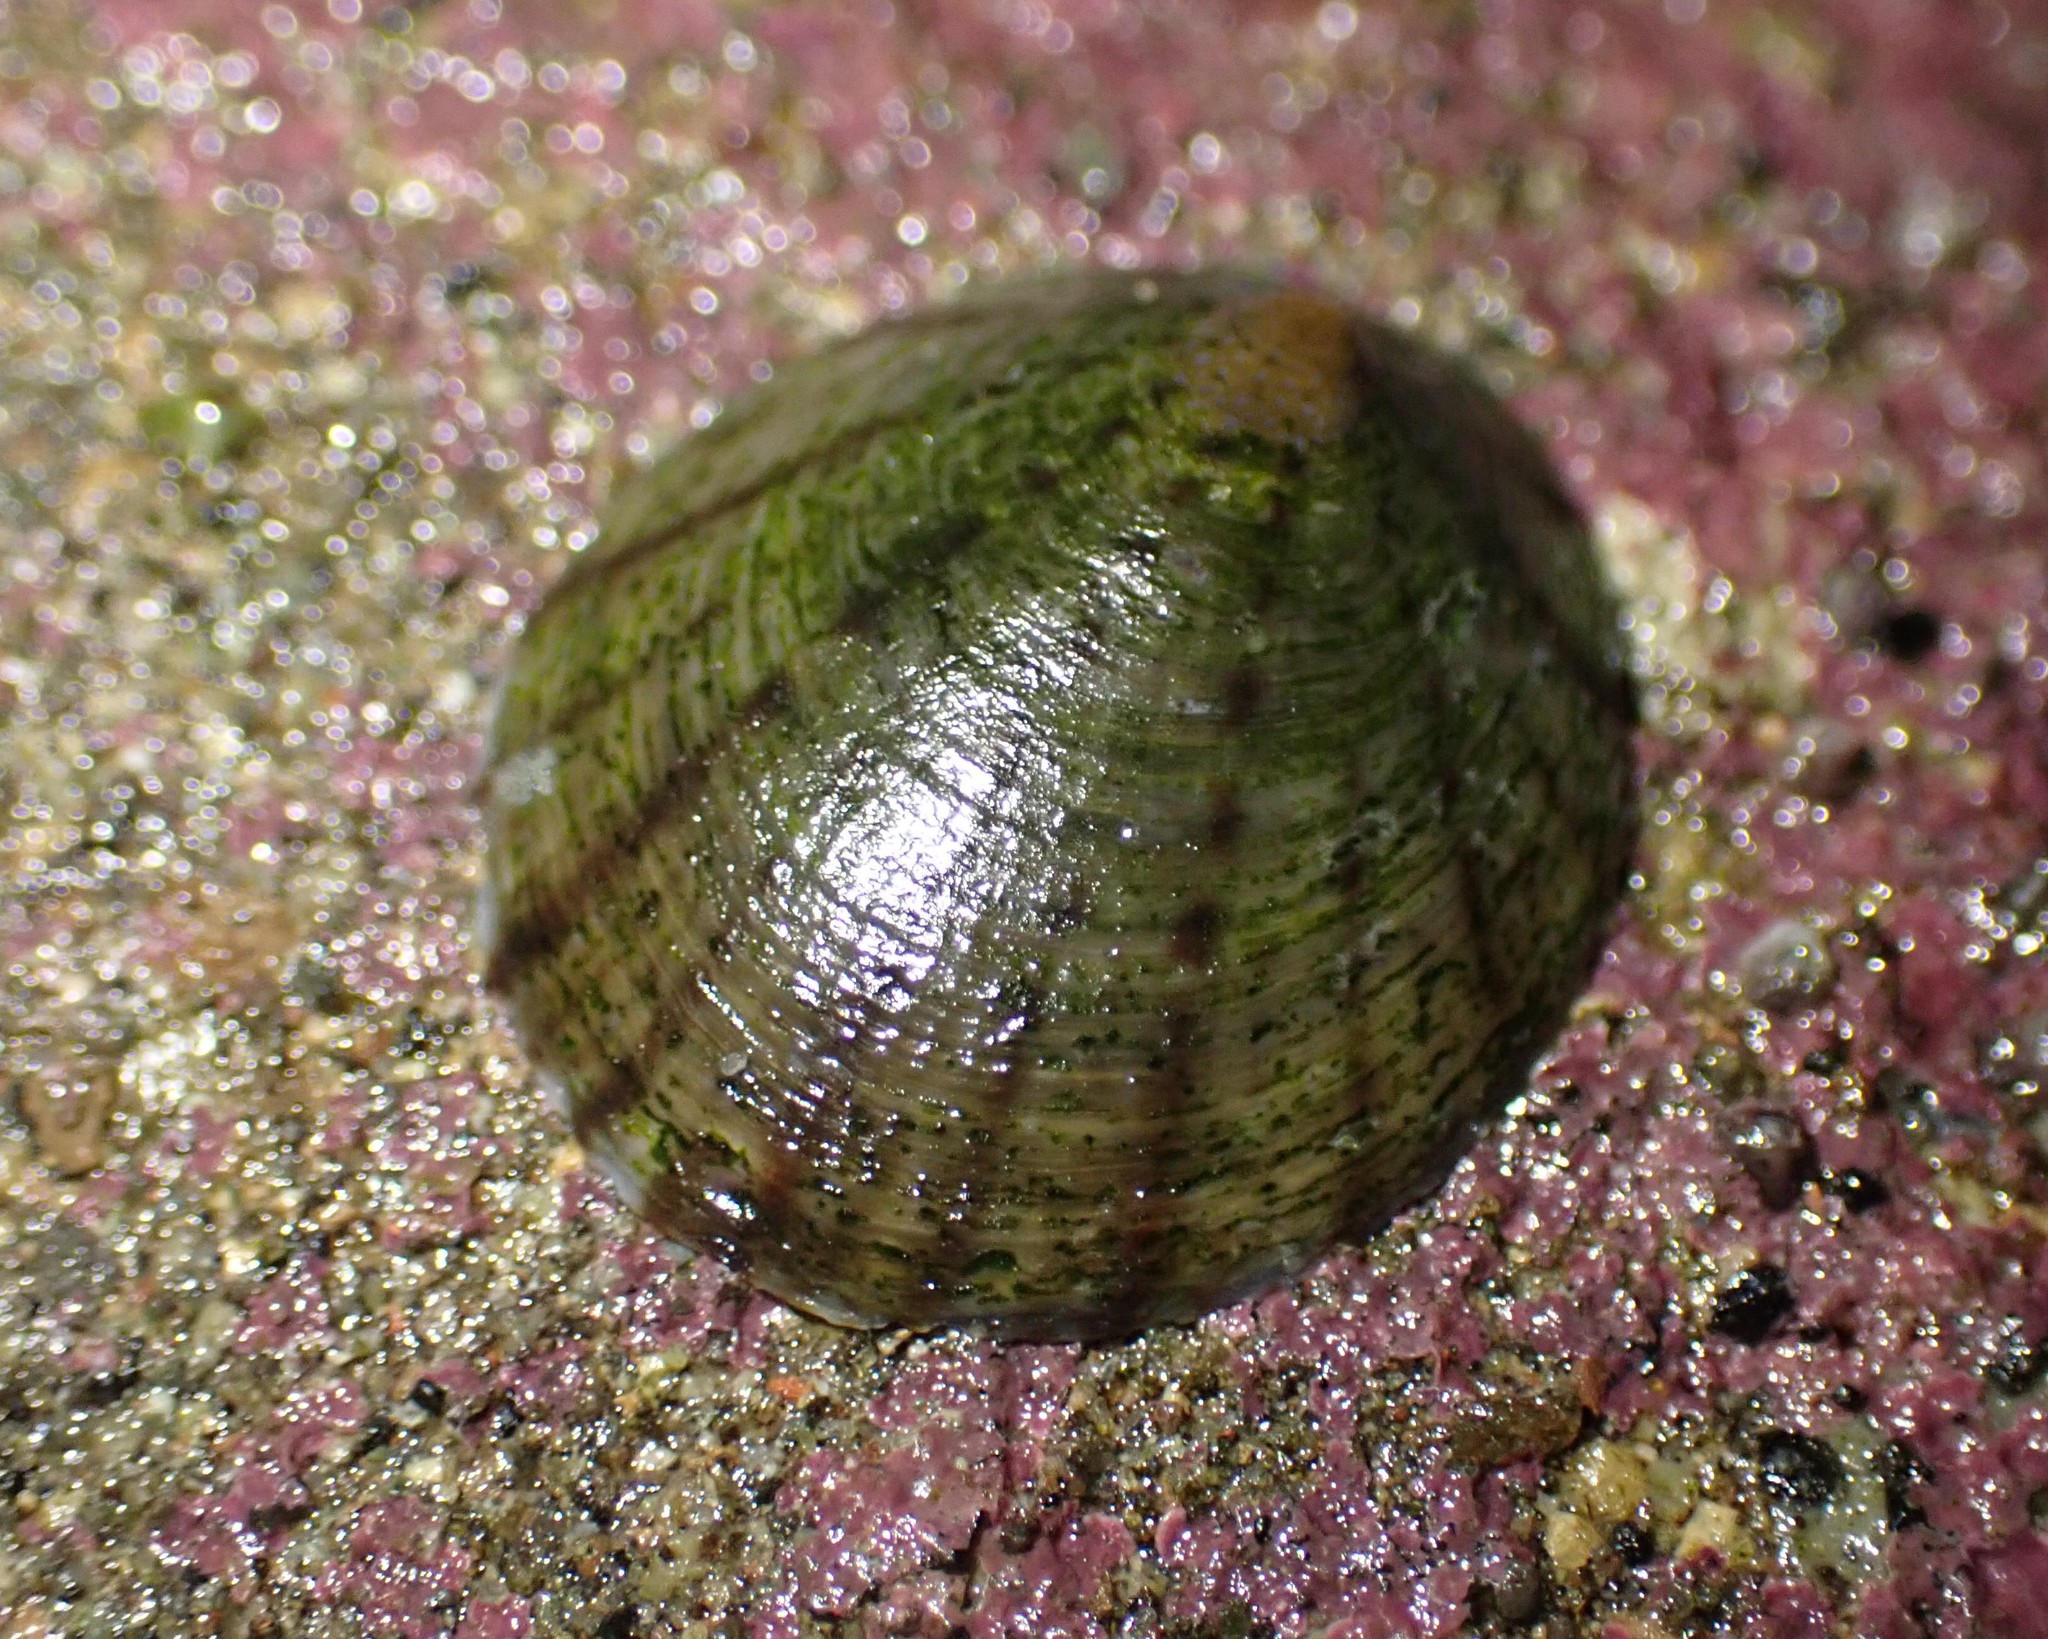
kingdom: Animalia
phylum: Mollusca
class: Gastropoda
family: Nacellidae
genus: Cellana
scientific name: Cellana radians
